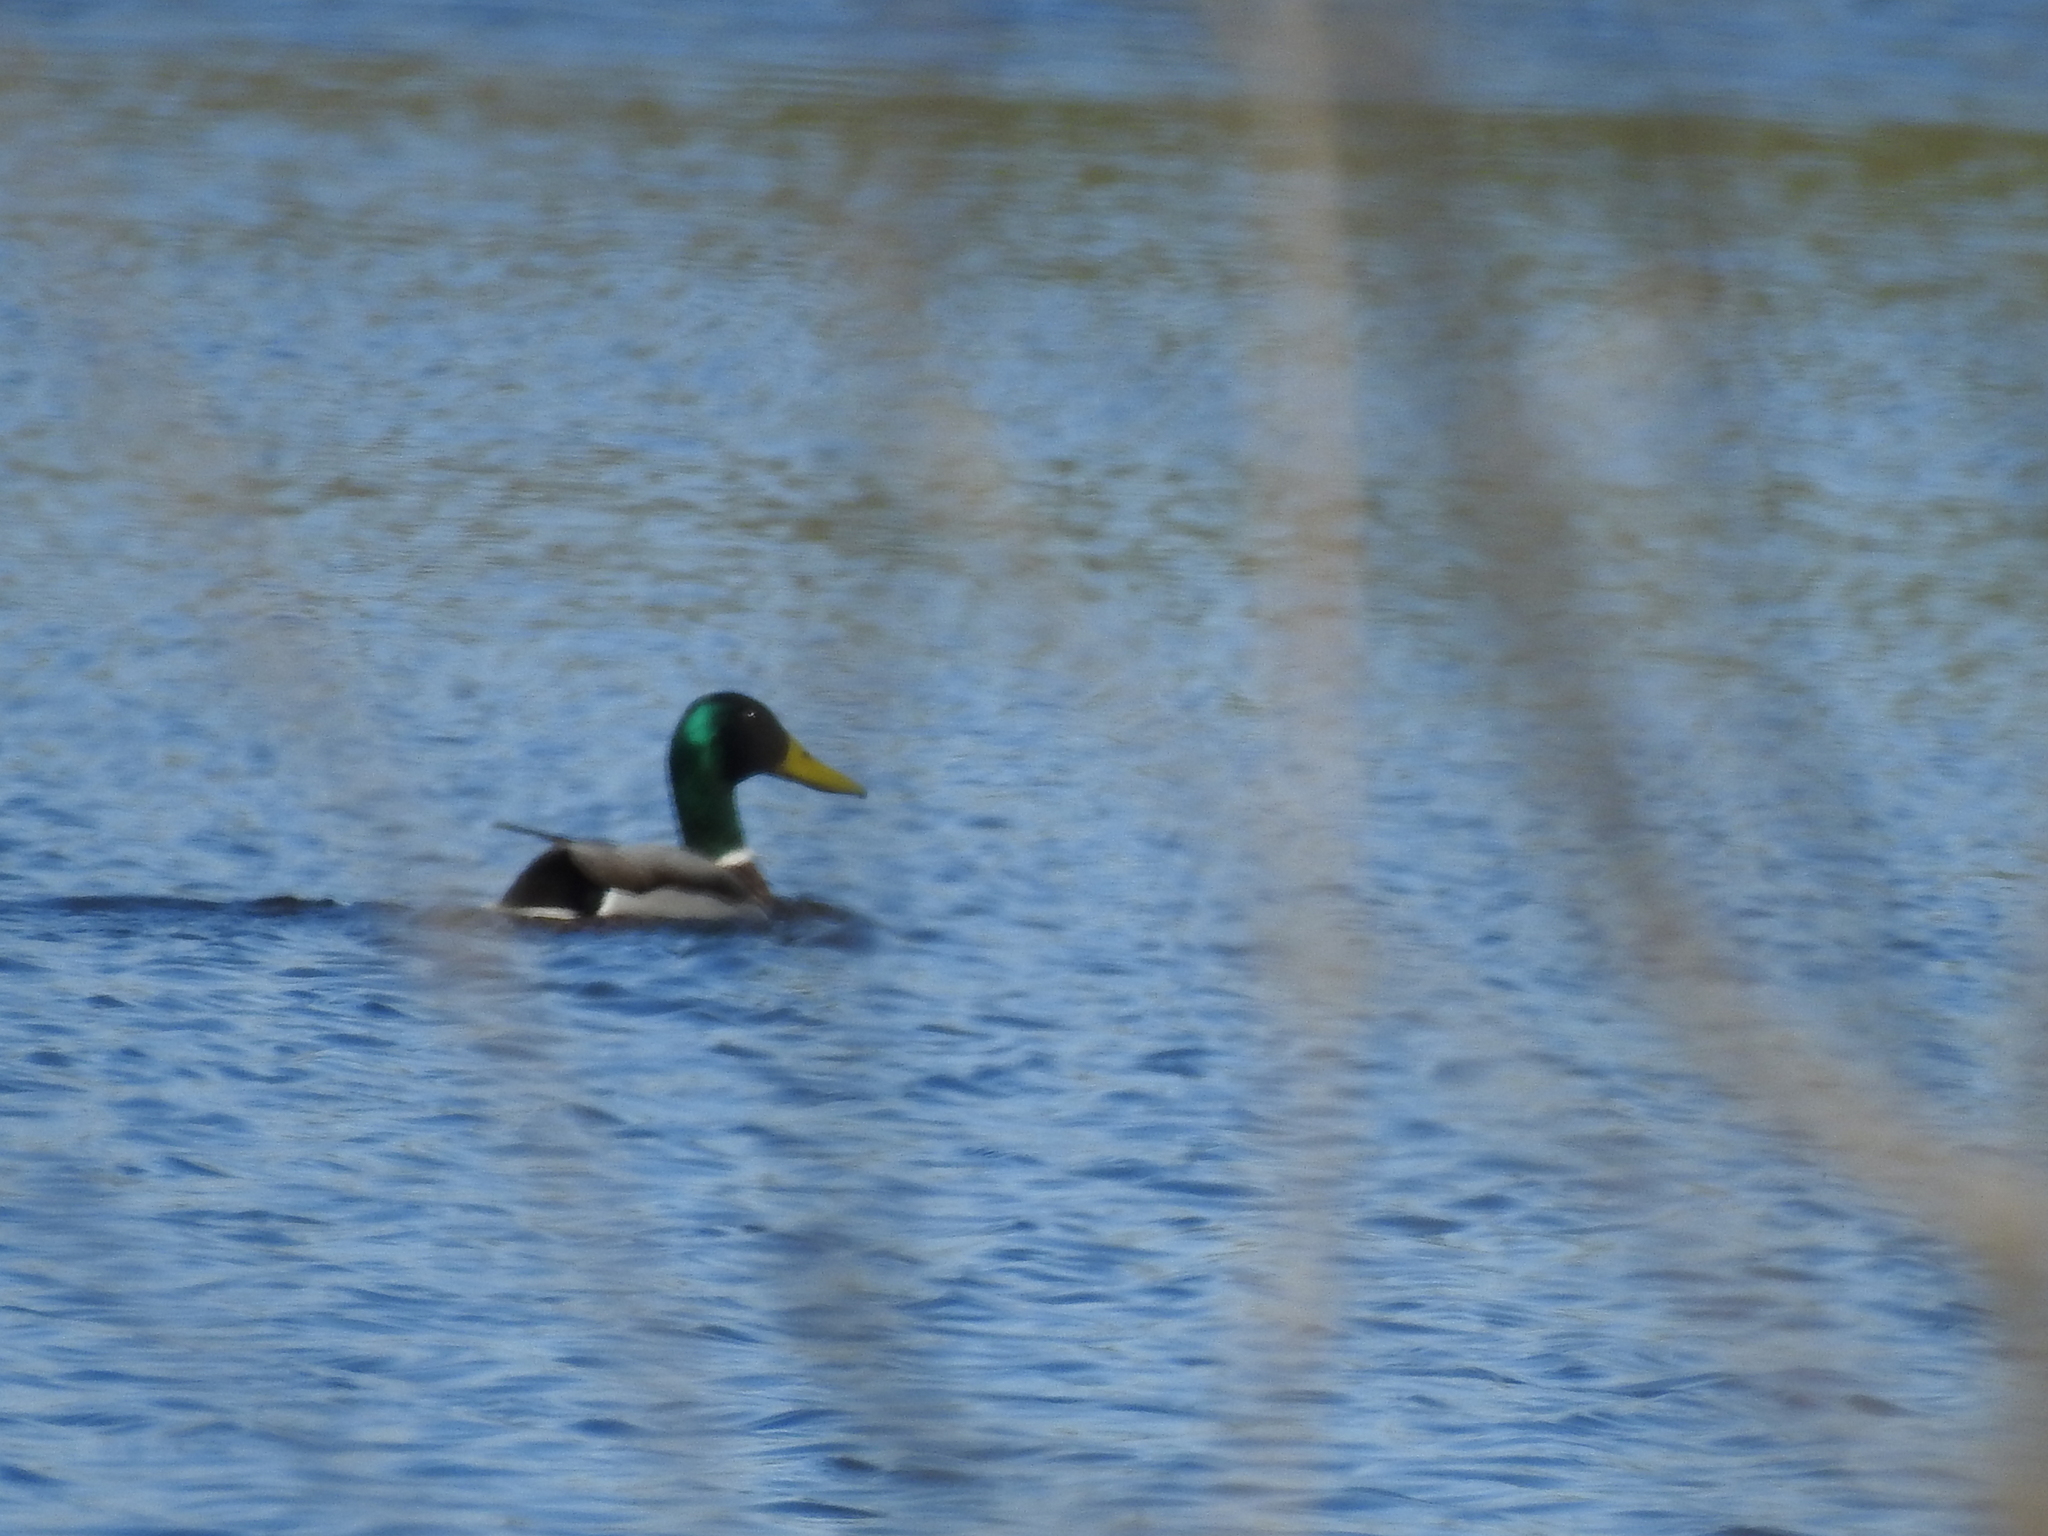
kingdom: Animalia
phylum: Chordata
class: Aves
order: Anseriformes
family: Anatidae
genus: Anas
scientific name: Anas platyrhynchos
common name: Mallard
